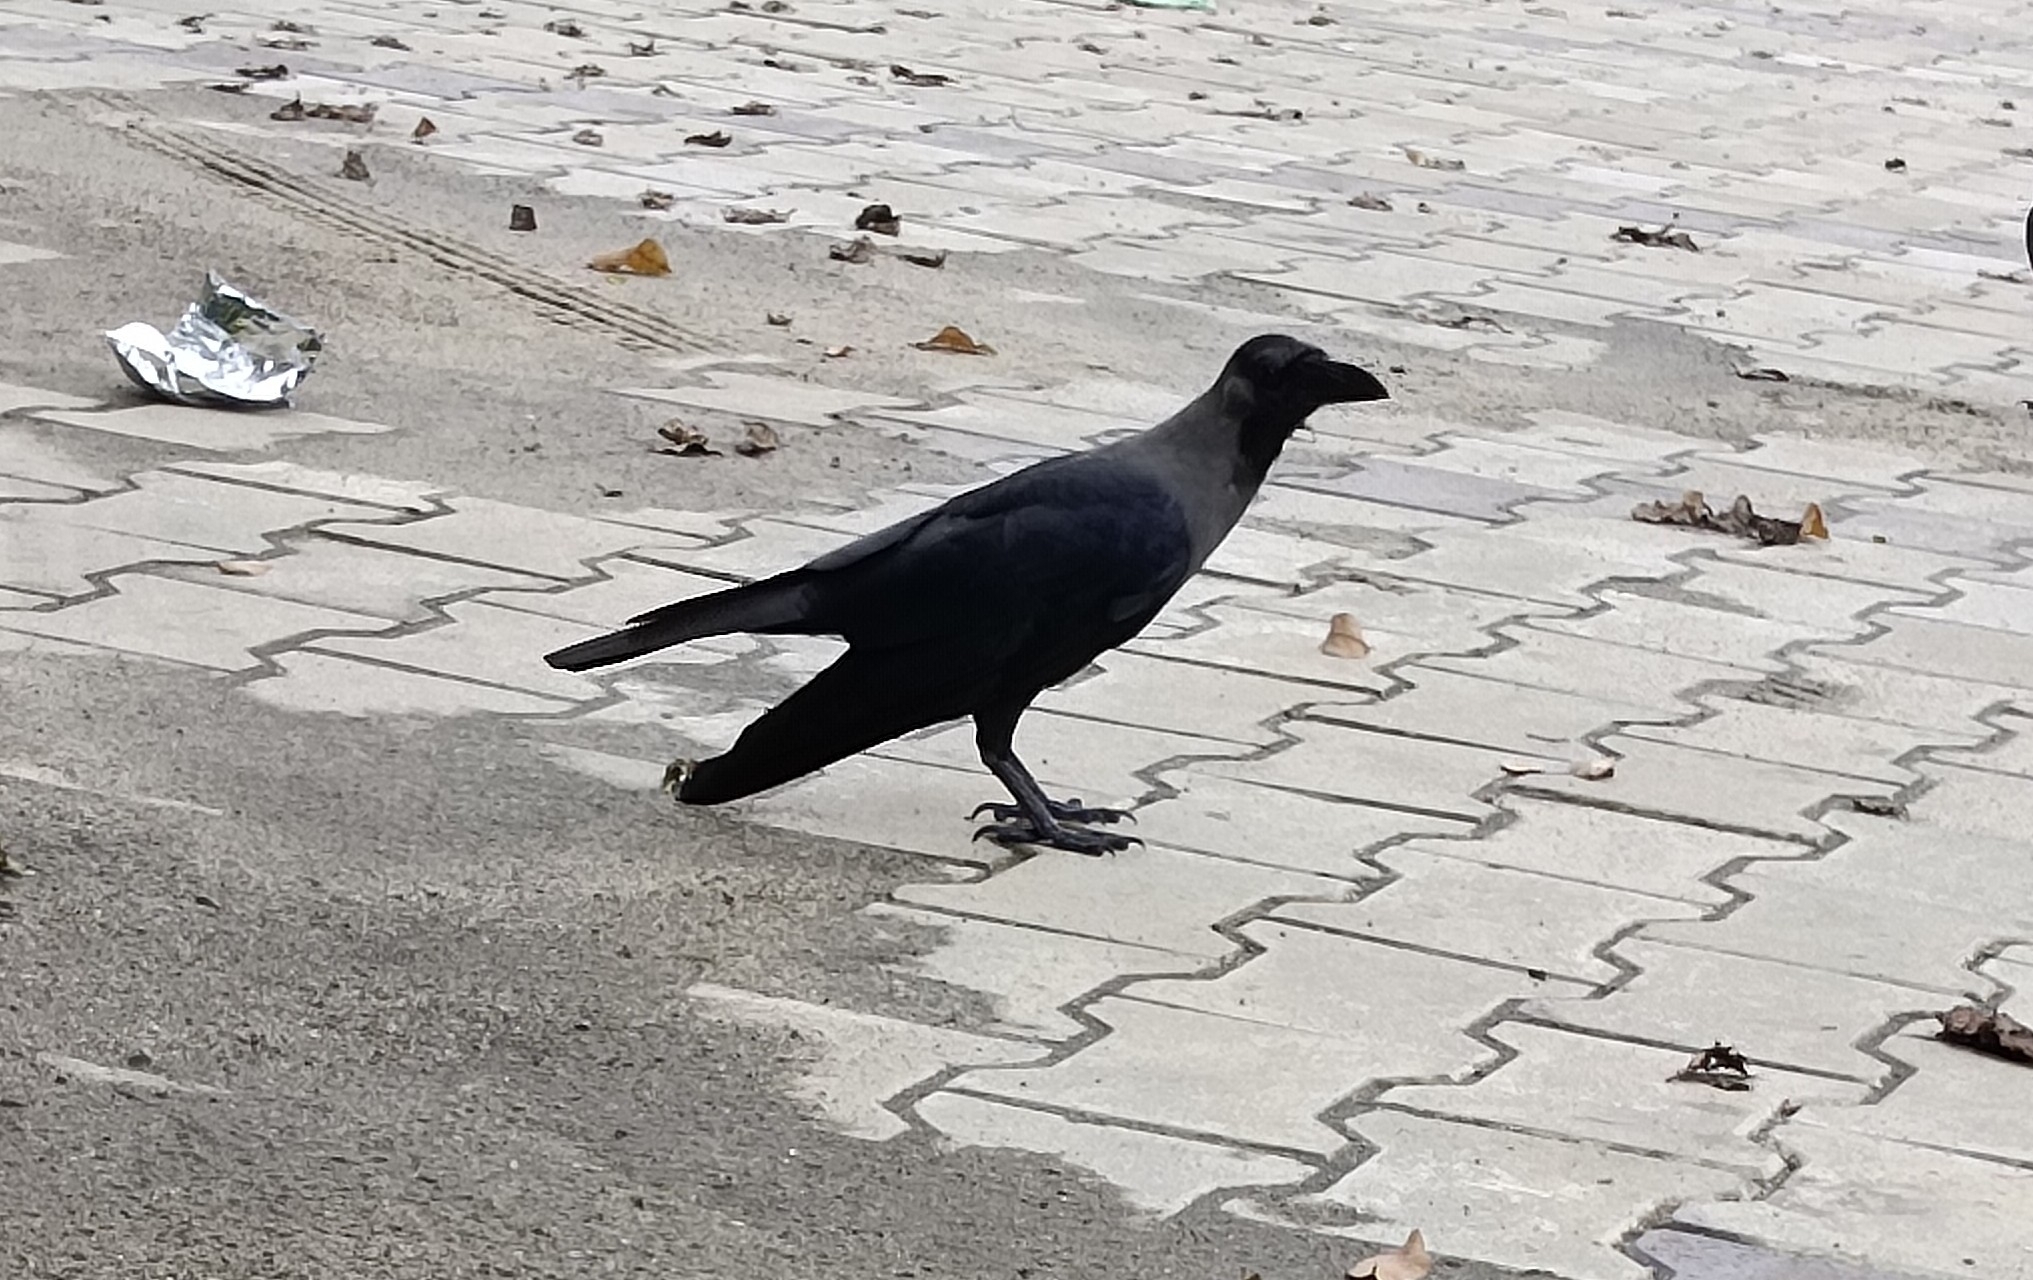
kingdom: Animalia
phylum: Chordata
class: Aves
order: Passeriformes
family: Corvidae
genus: Corvus
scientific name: Corvus splendens
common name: House crow
